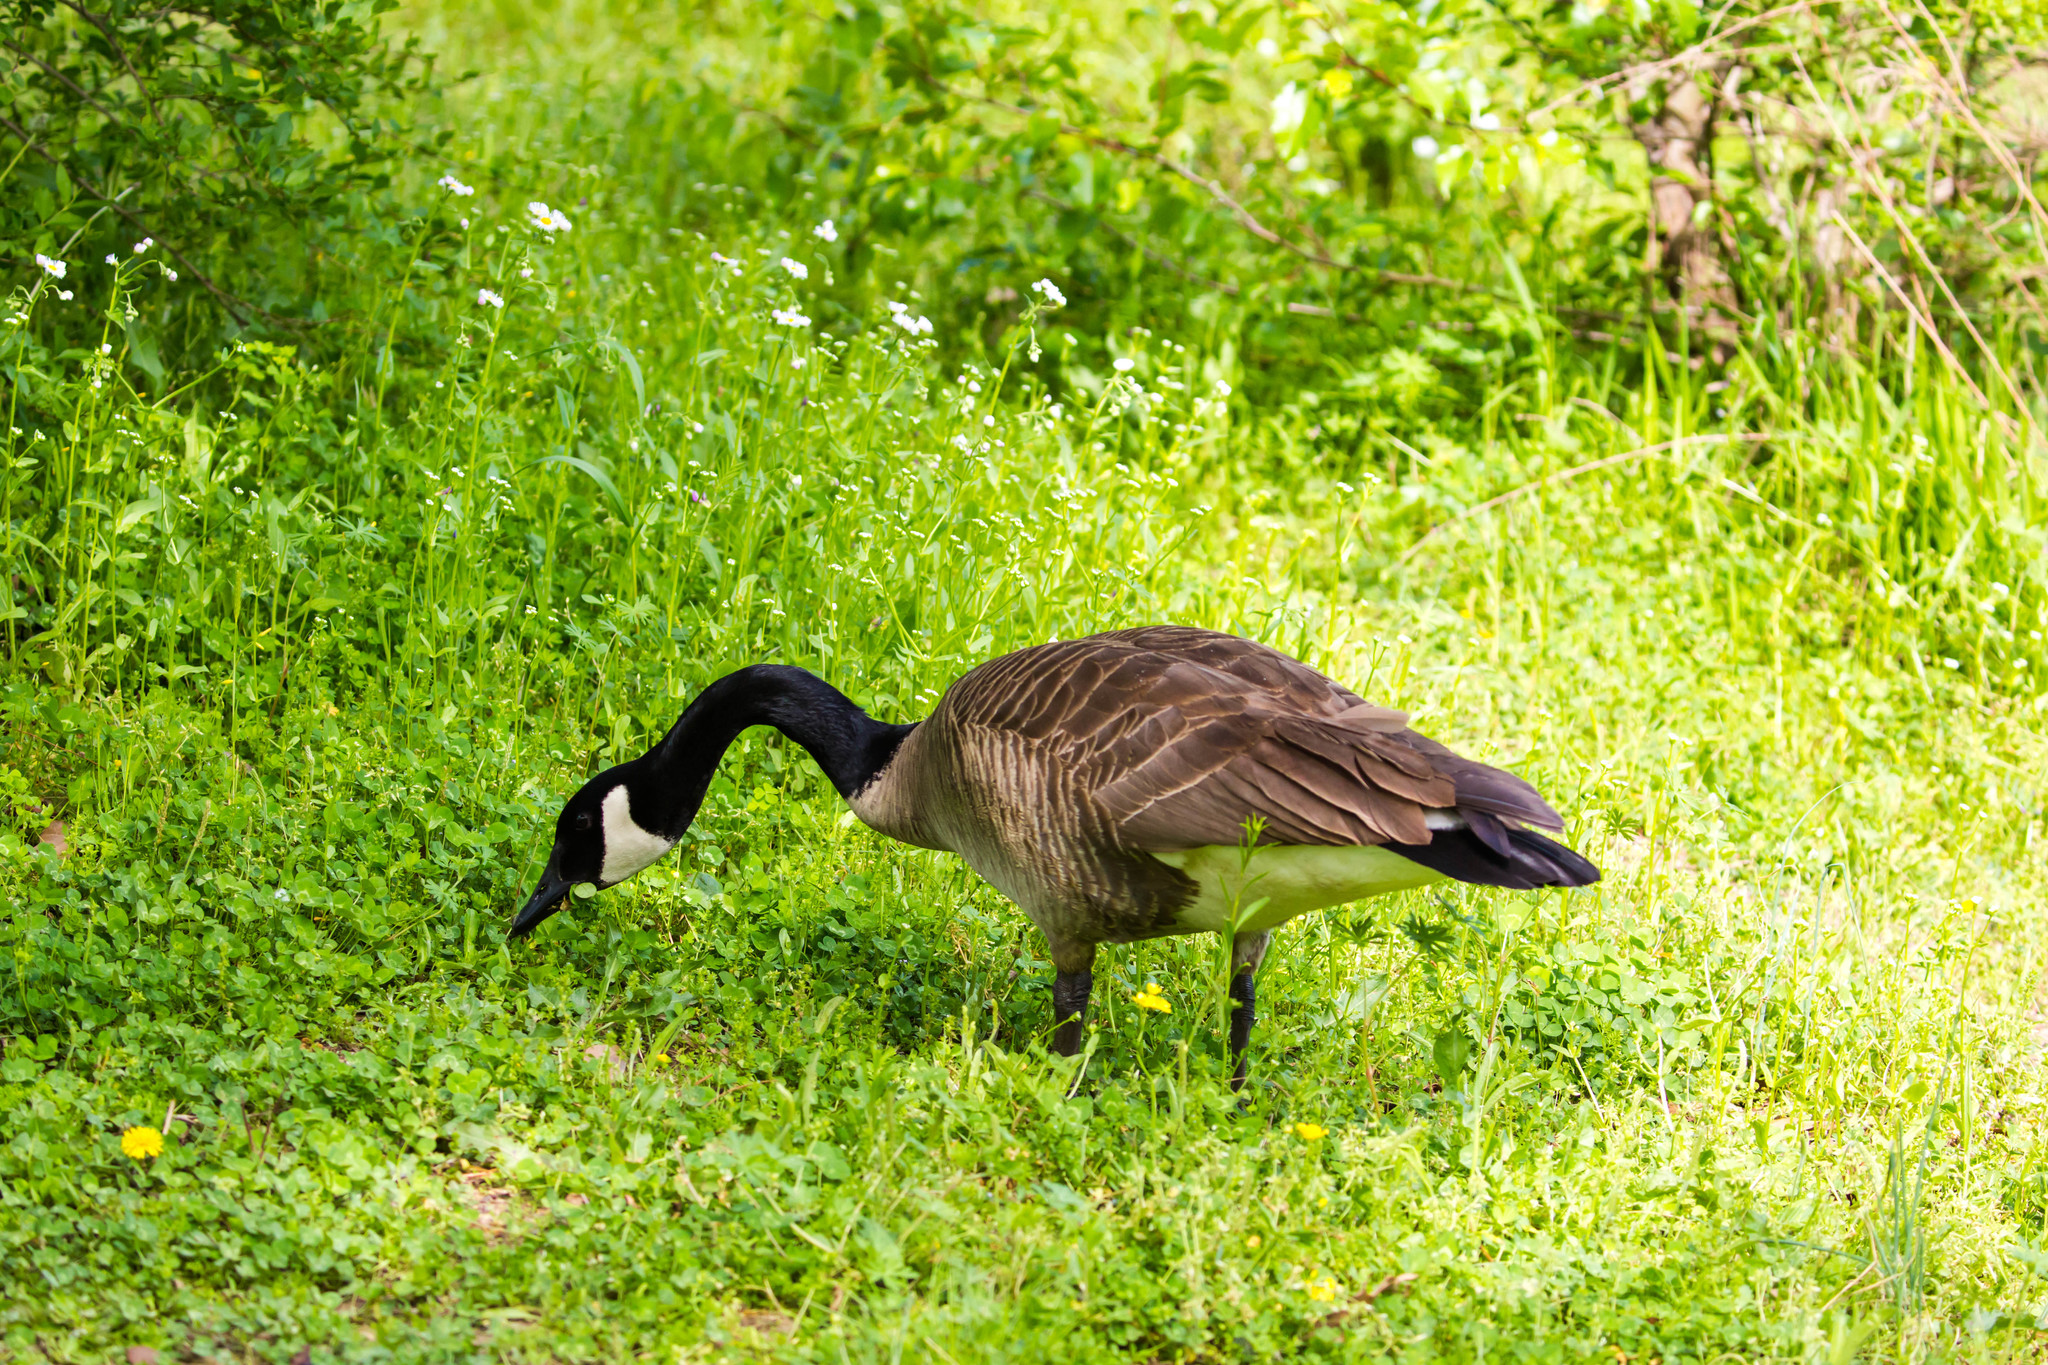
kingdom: Animalia
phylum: Chordata
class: Aves
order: Anseriformes
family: Anatidae
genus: Branta
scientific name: Branta canadensis
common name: Canada goose
